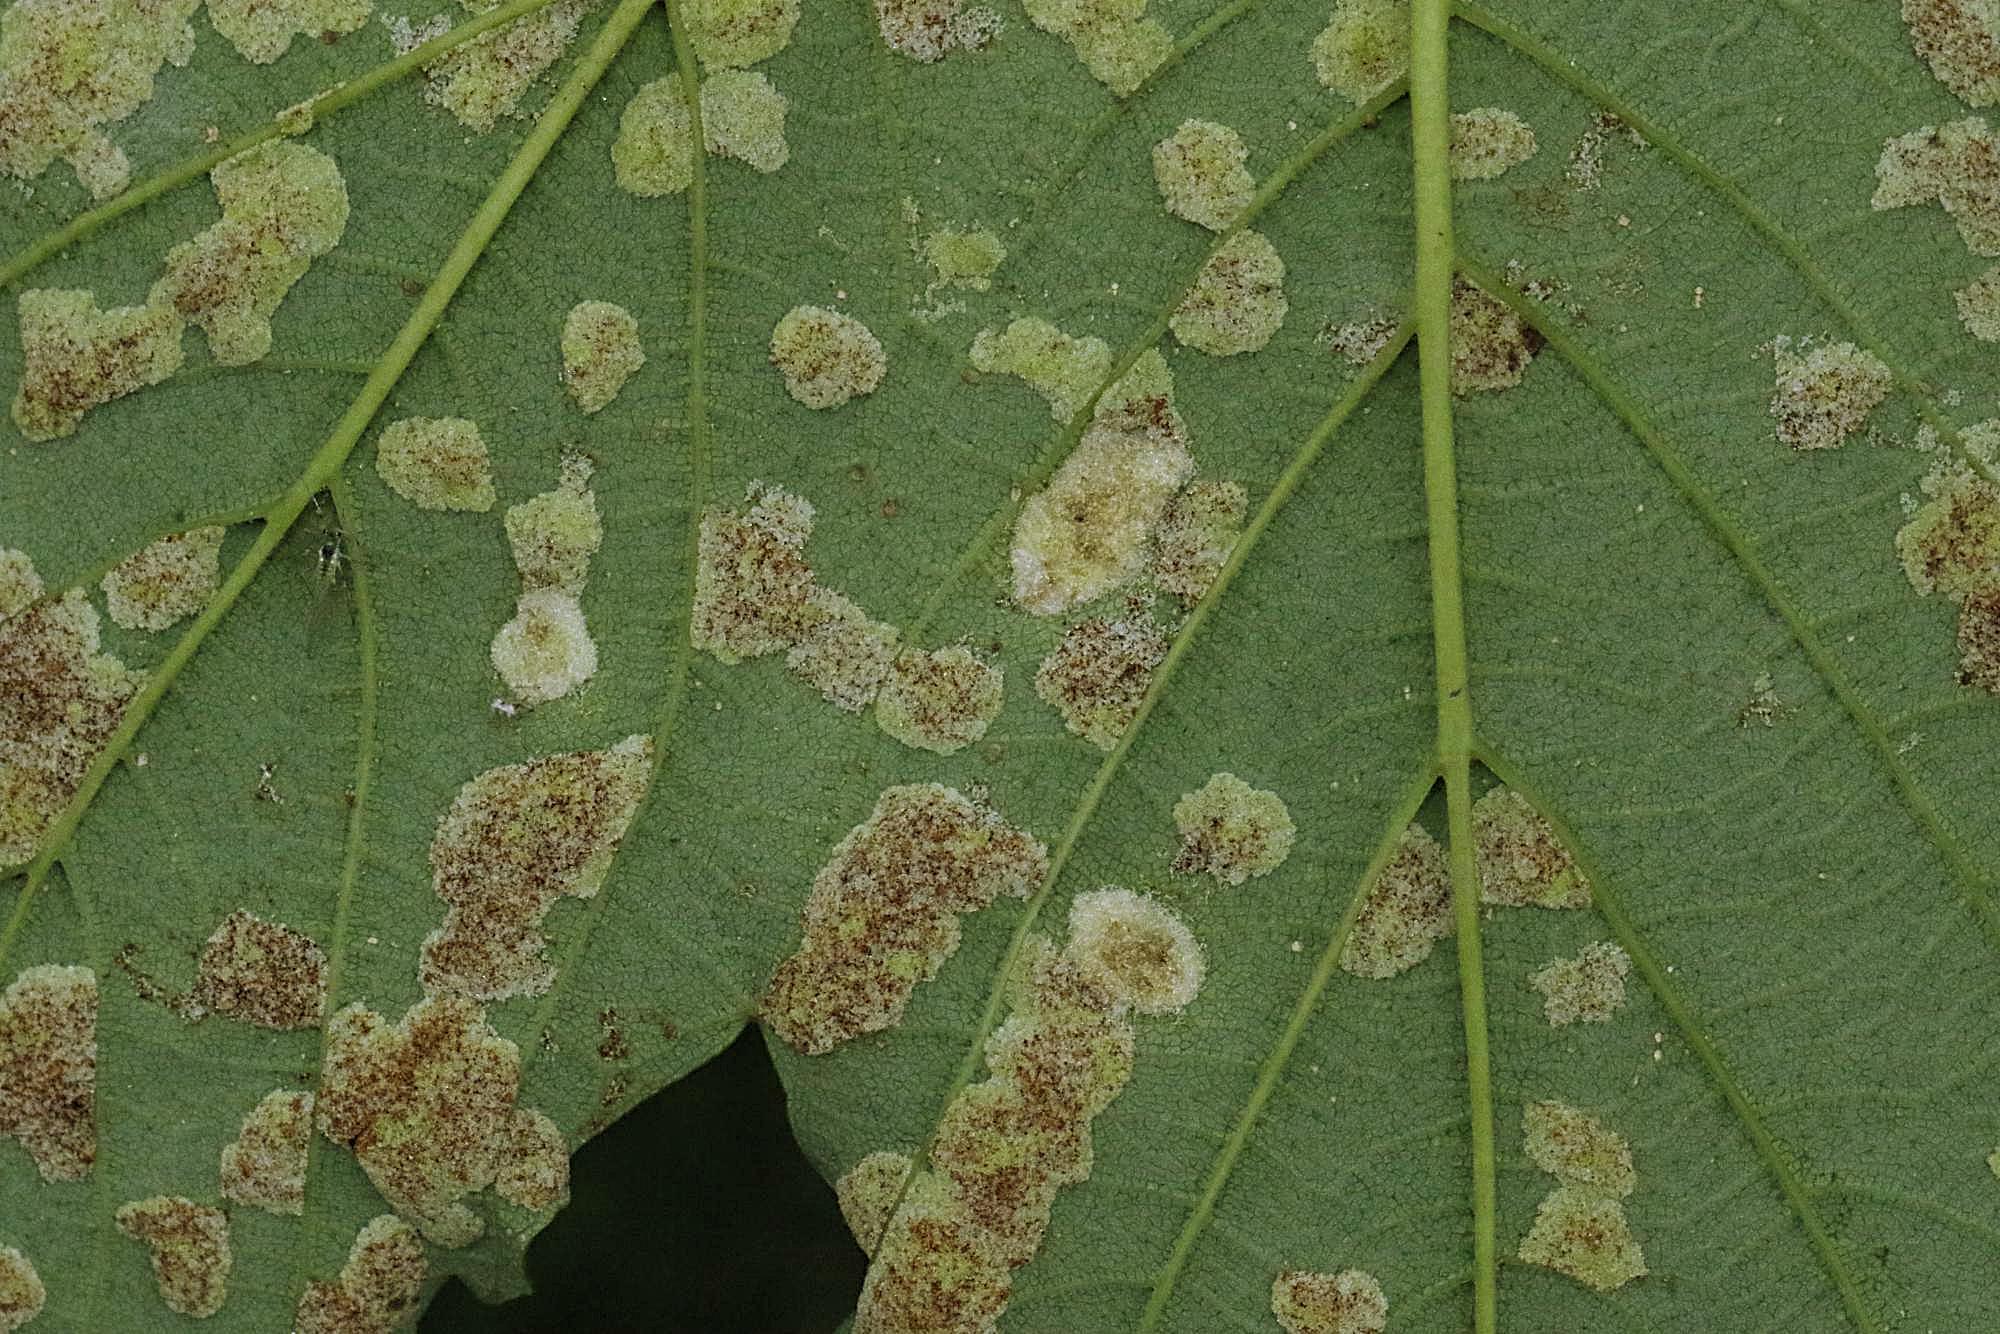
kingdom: Animalia
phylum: Arthropoda
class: Arachnida
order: Trombidiformes
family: Eriophyidae
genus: Aceria
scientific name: Aceria pseudoplatani
